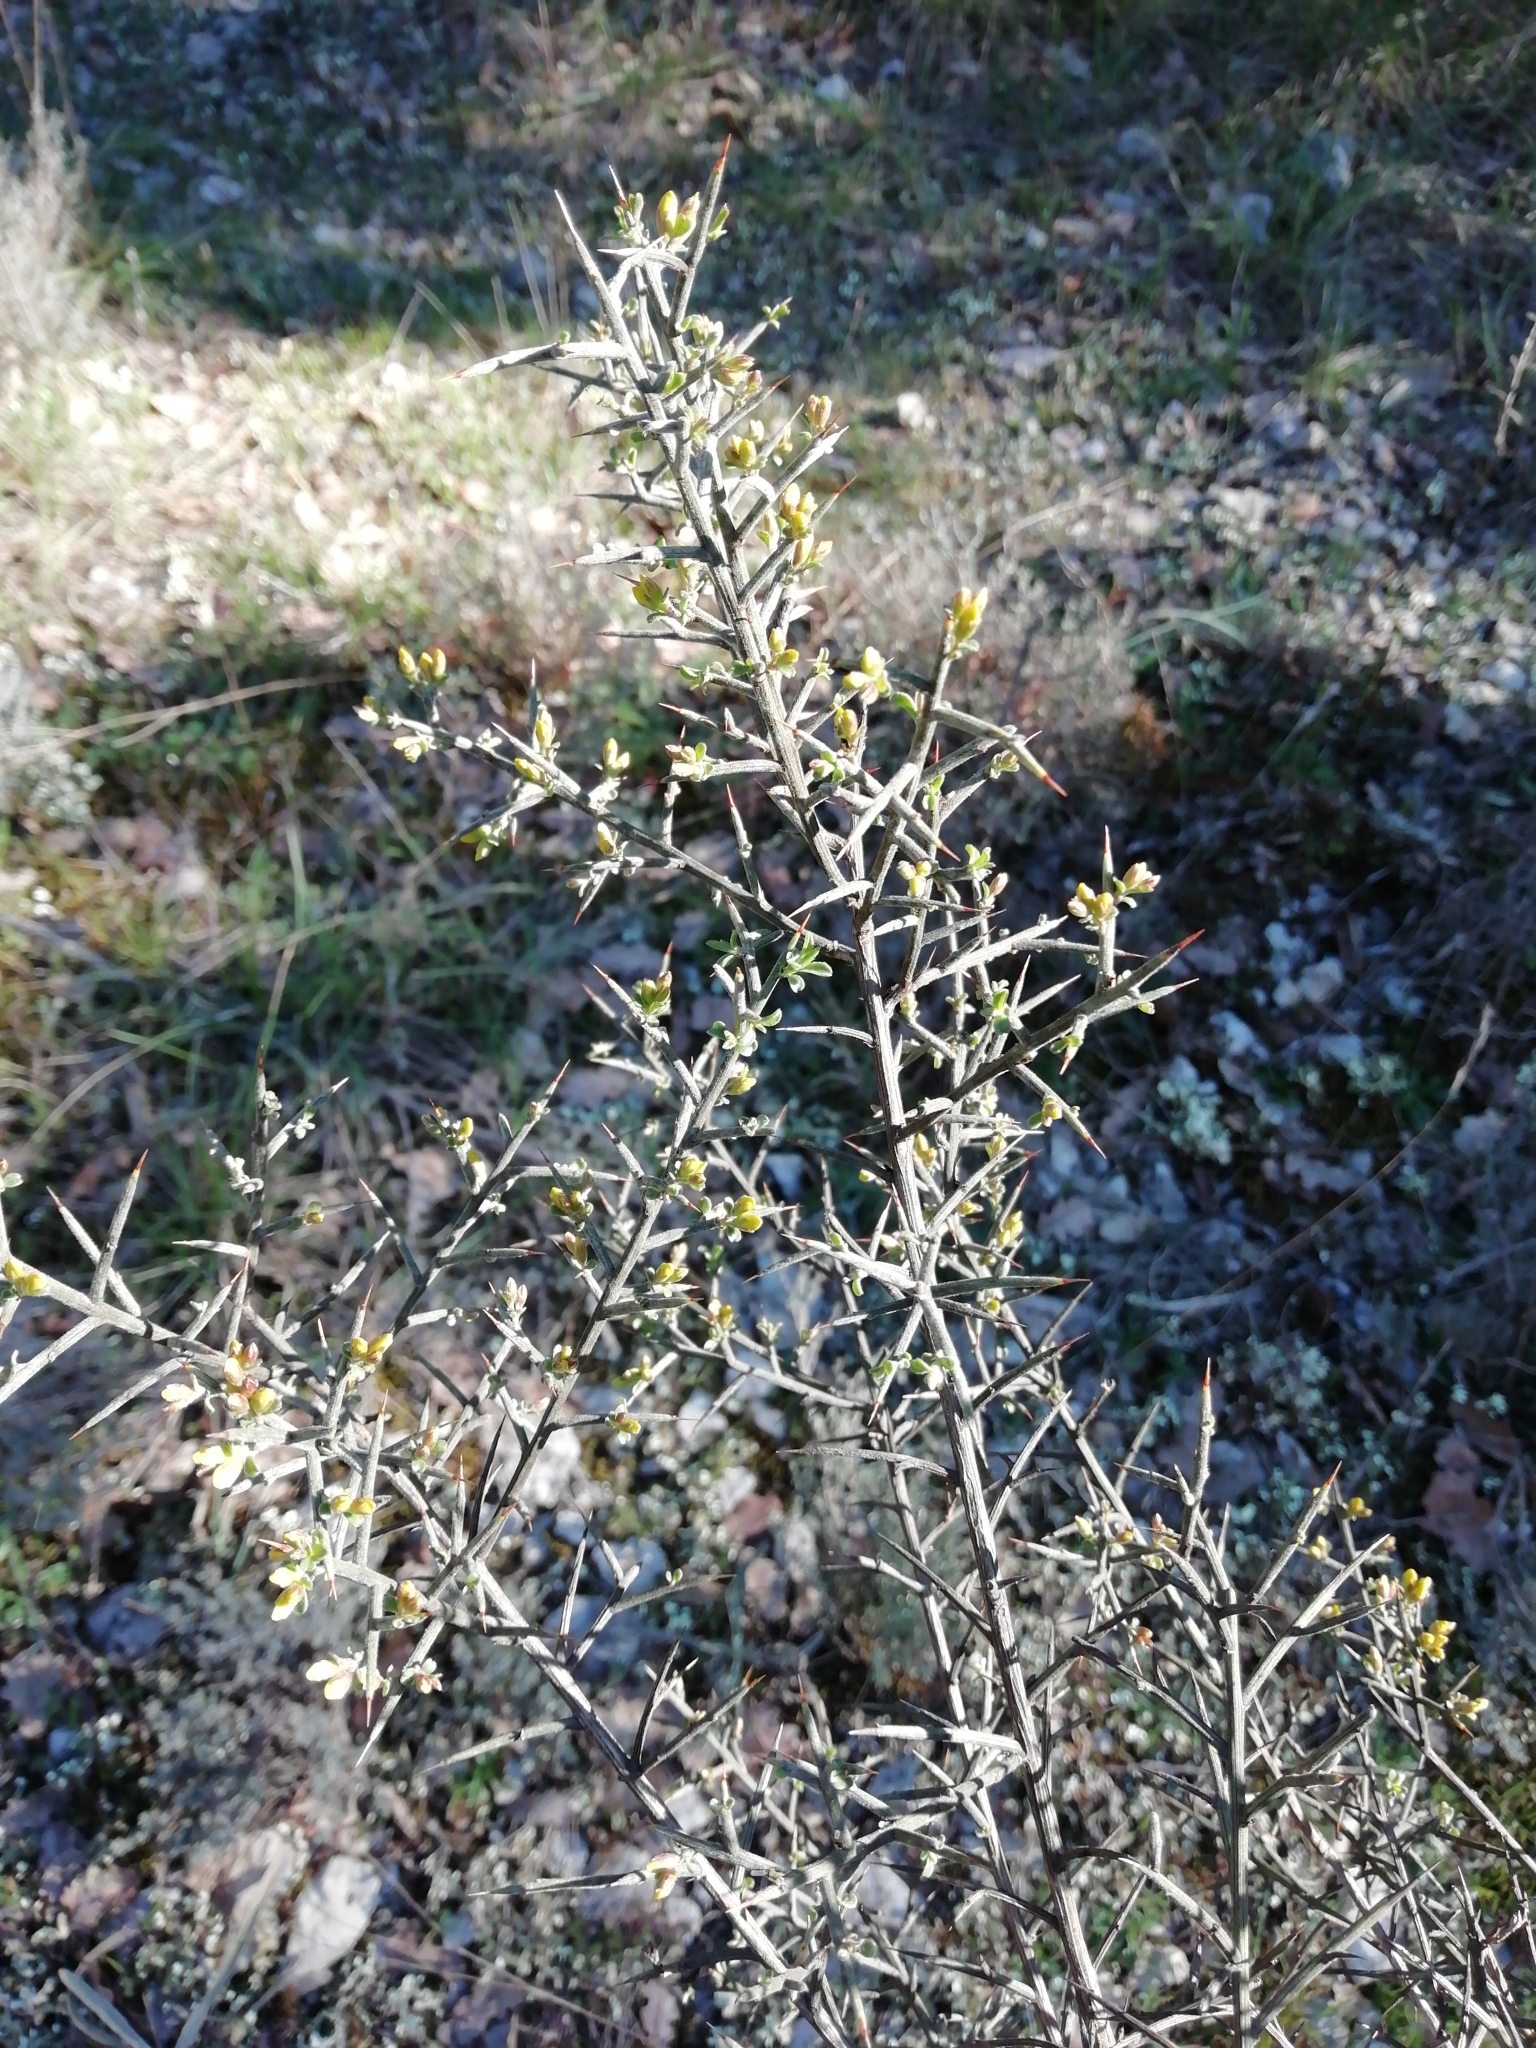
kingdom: Plantae
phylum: Tracheophyta
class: Magnoliopsida
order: Fabales
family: Fabaceae
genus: Genista
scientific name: Genista scorpius
